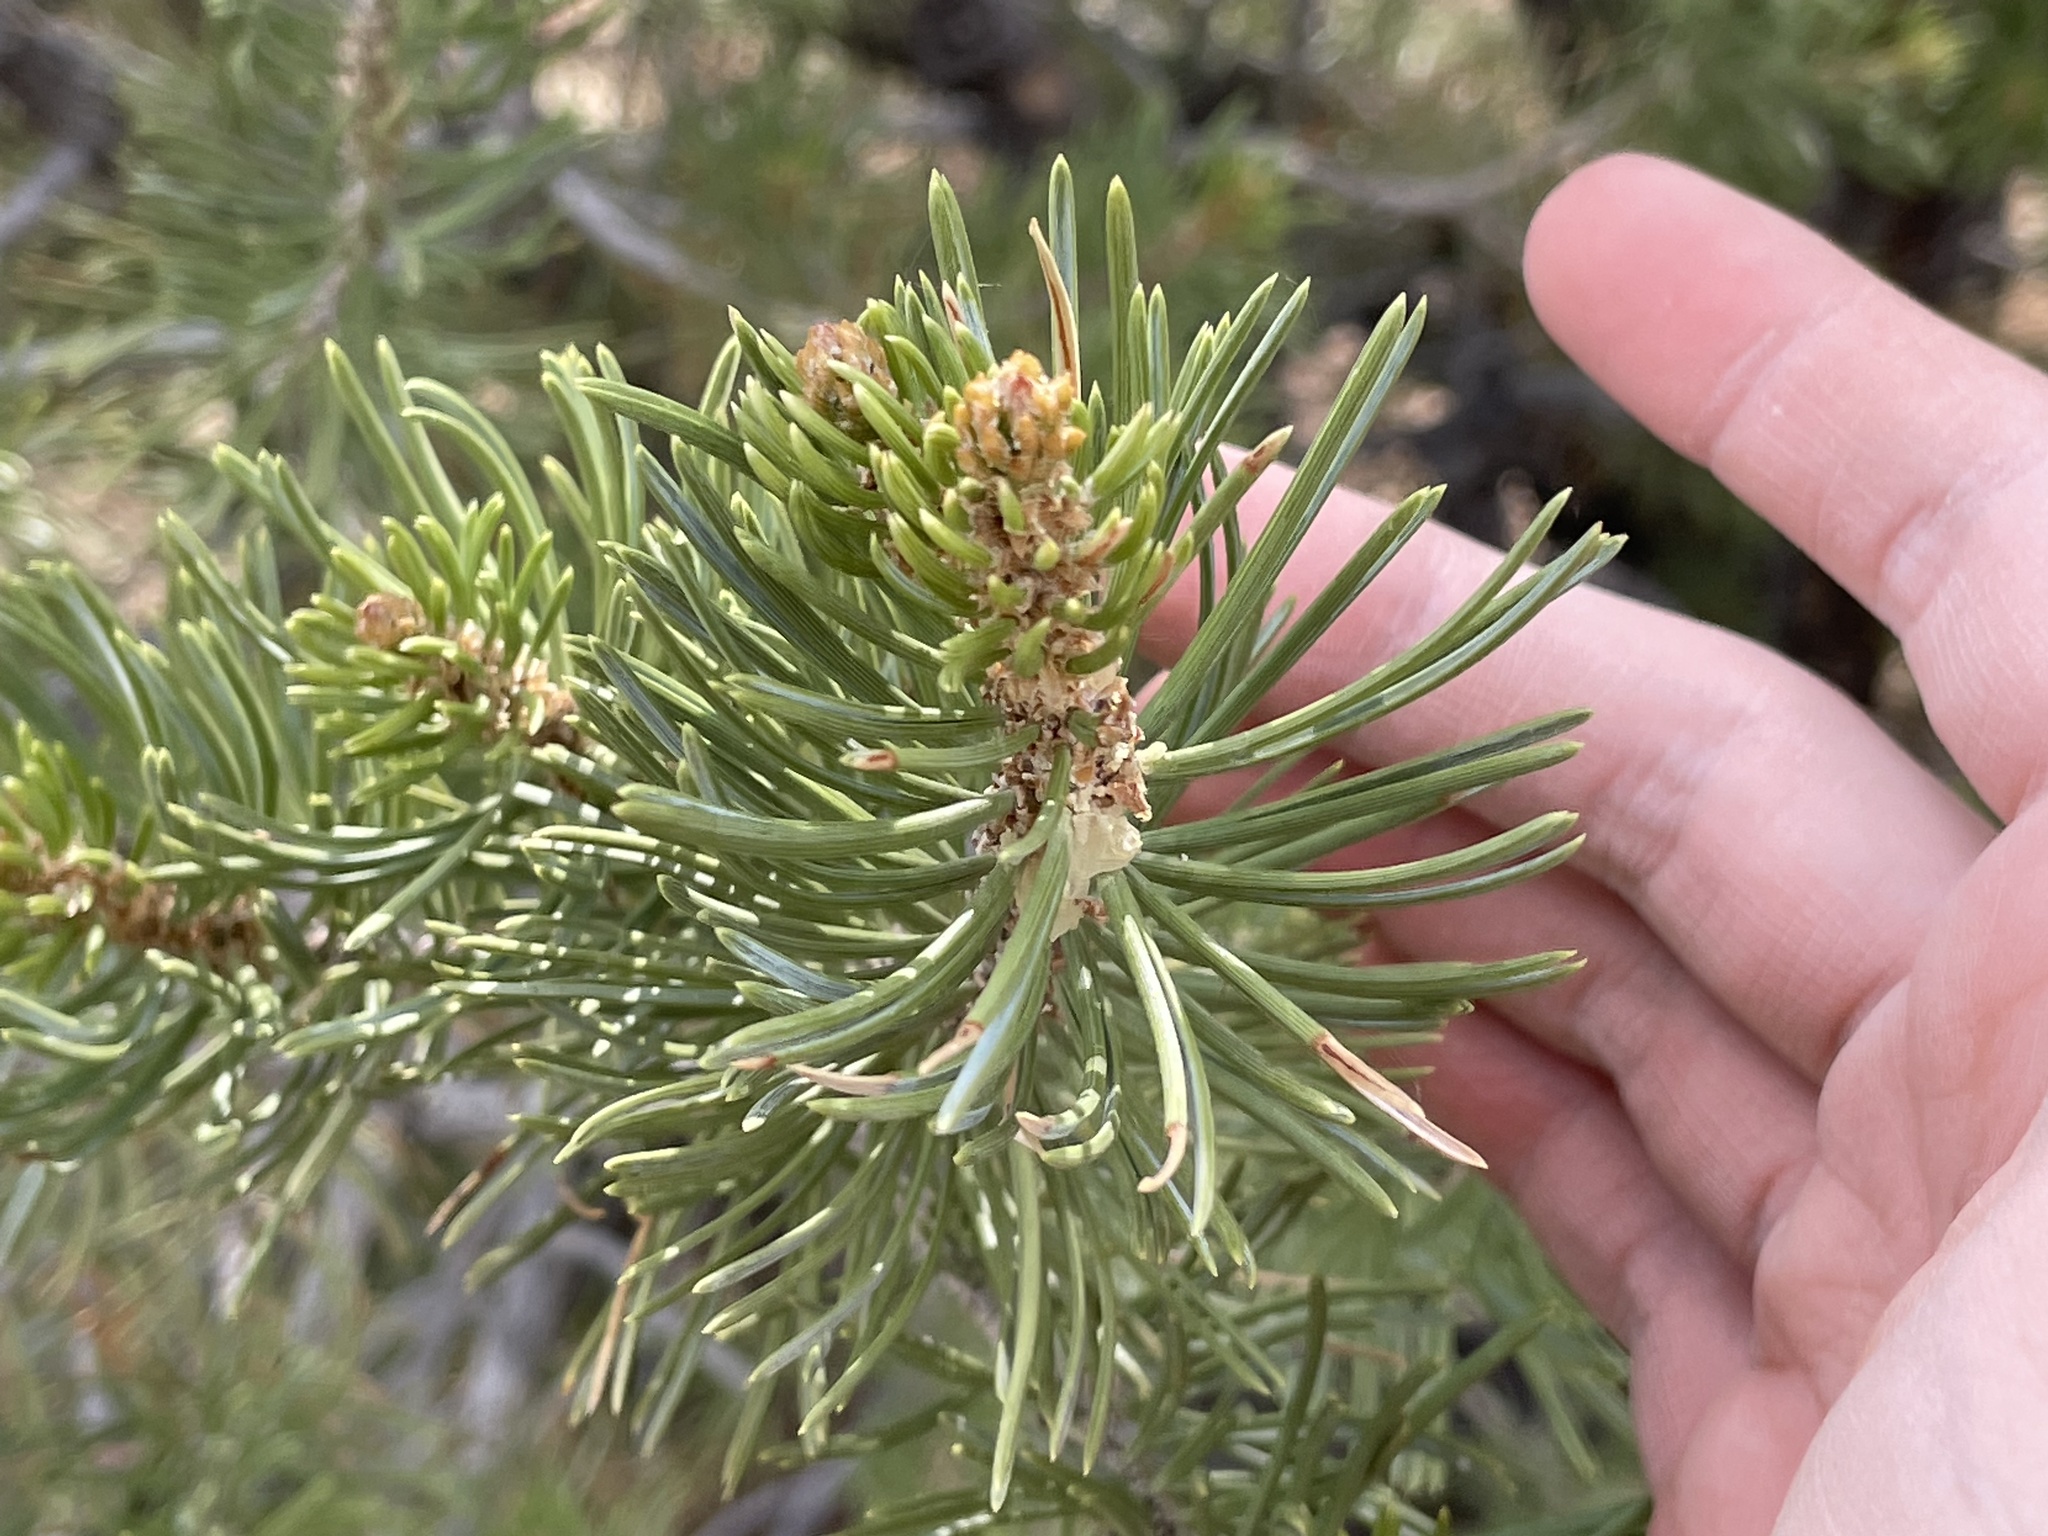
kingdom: Plantae
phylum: Tracheophyta
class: Pinopsida
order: Pinales
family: Pinaceae
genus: Pinus
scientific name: Pinus edulis
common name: Colorado pinyon
